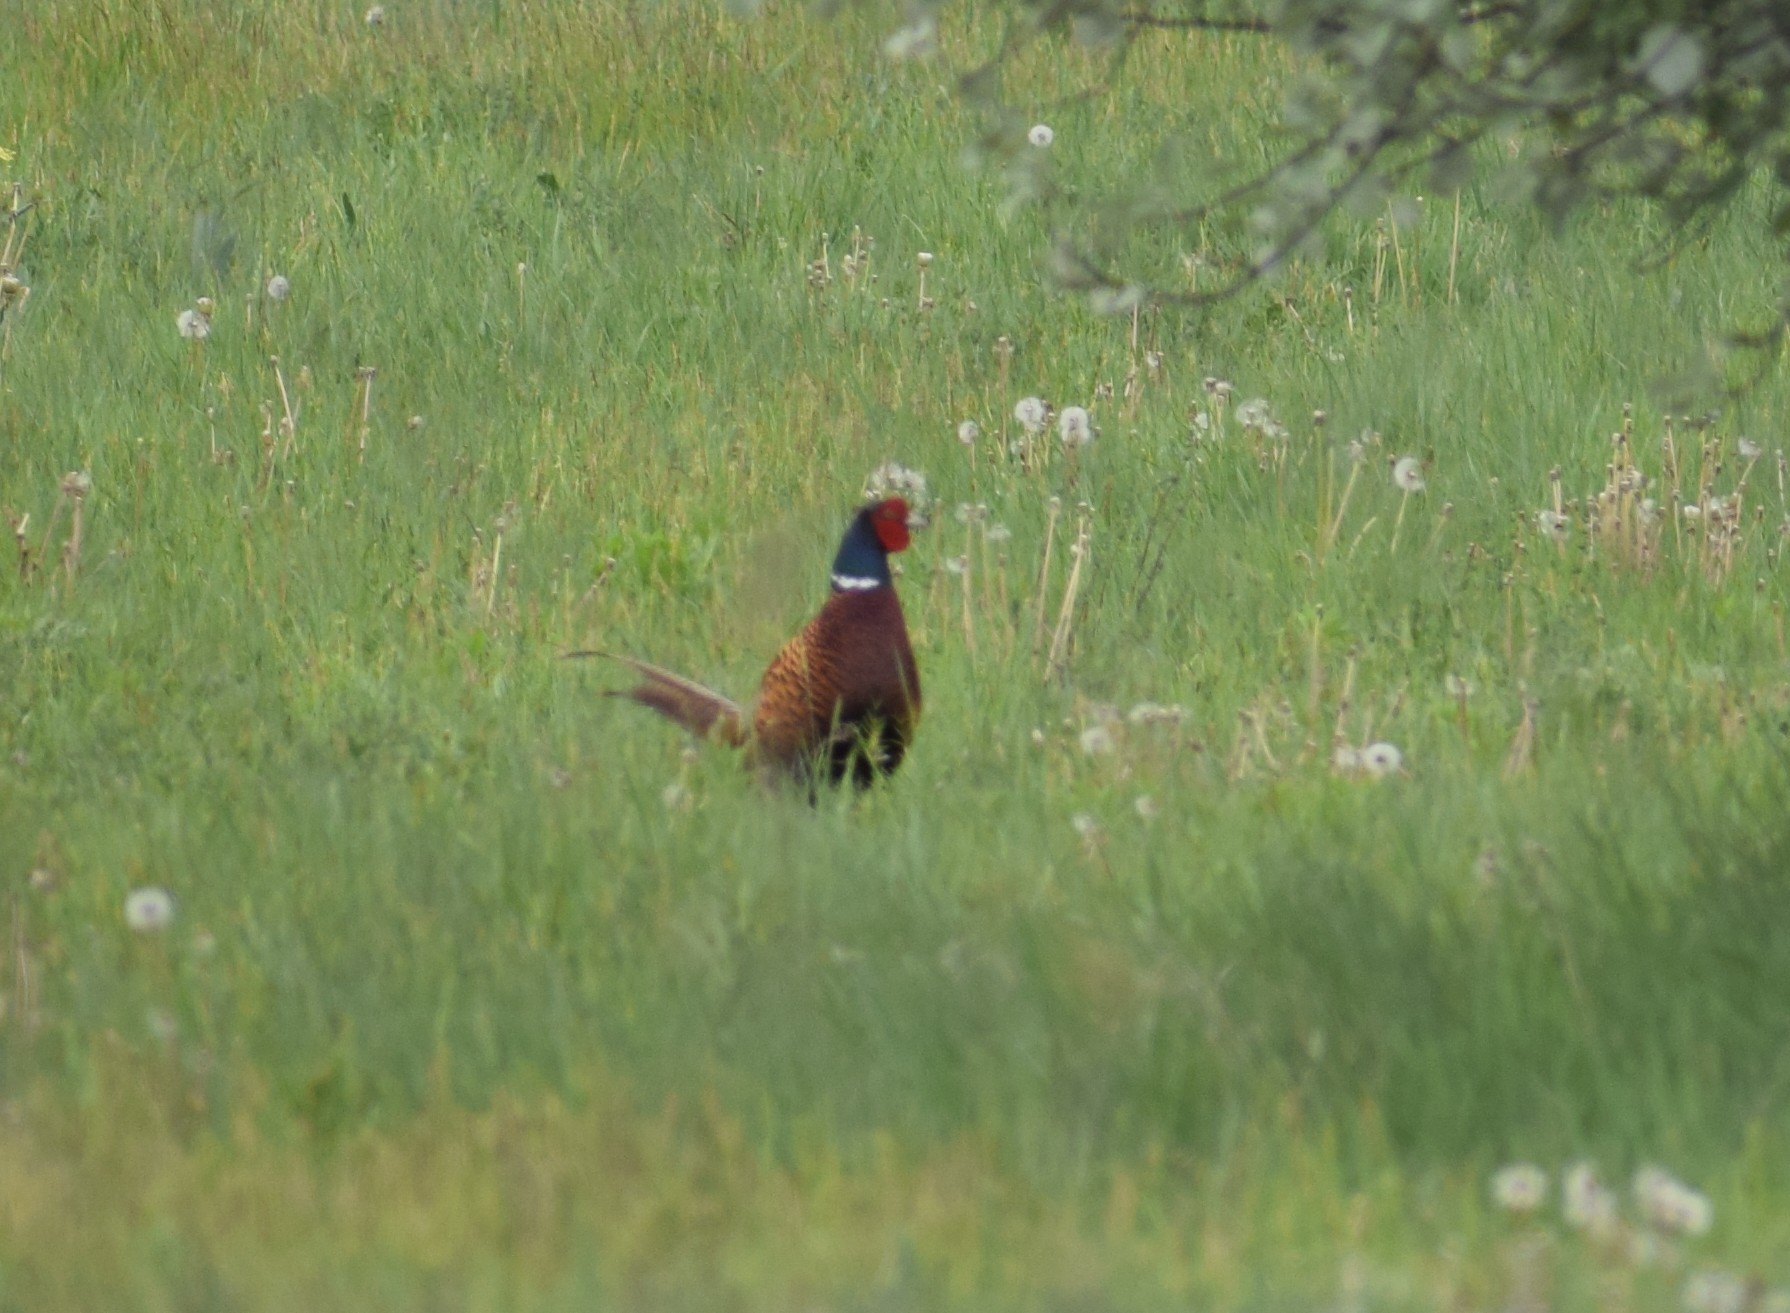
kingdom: Animalia
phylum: Chordata
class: Aves
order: Galliformes
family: Phasianidae
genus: Phasianus
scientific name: Phasianus colchicus
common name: Common pheasant
